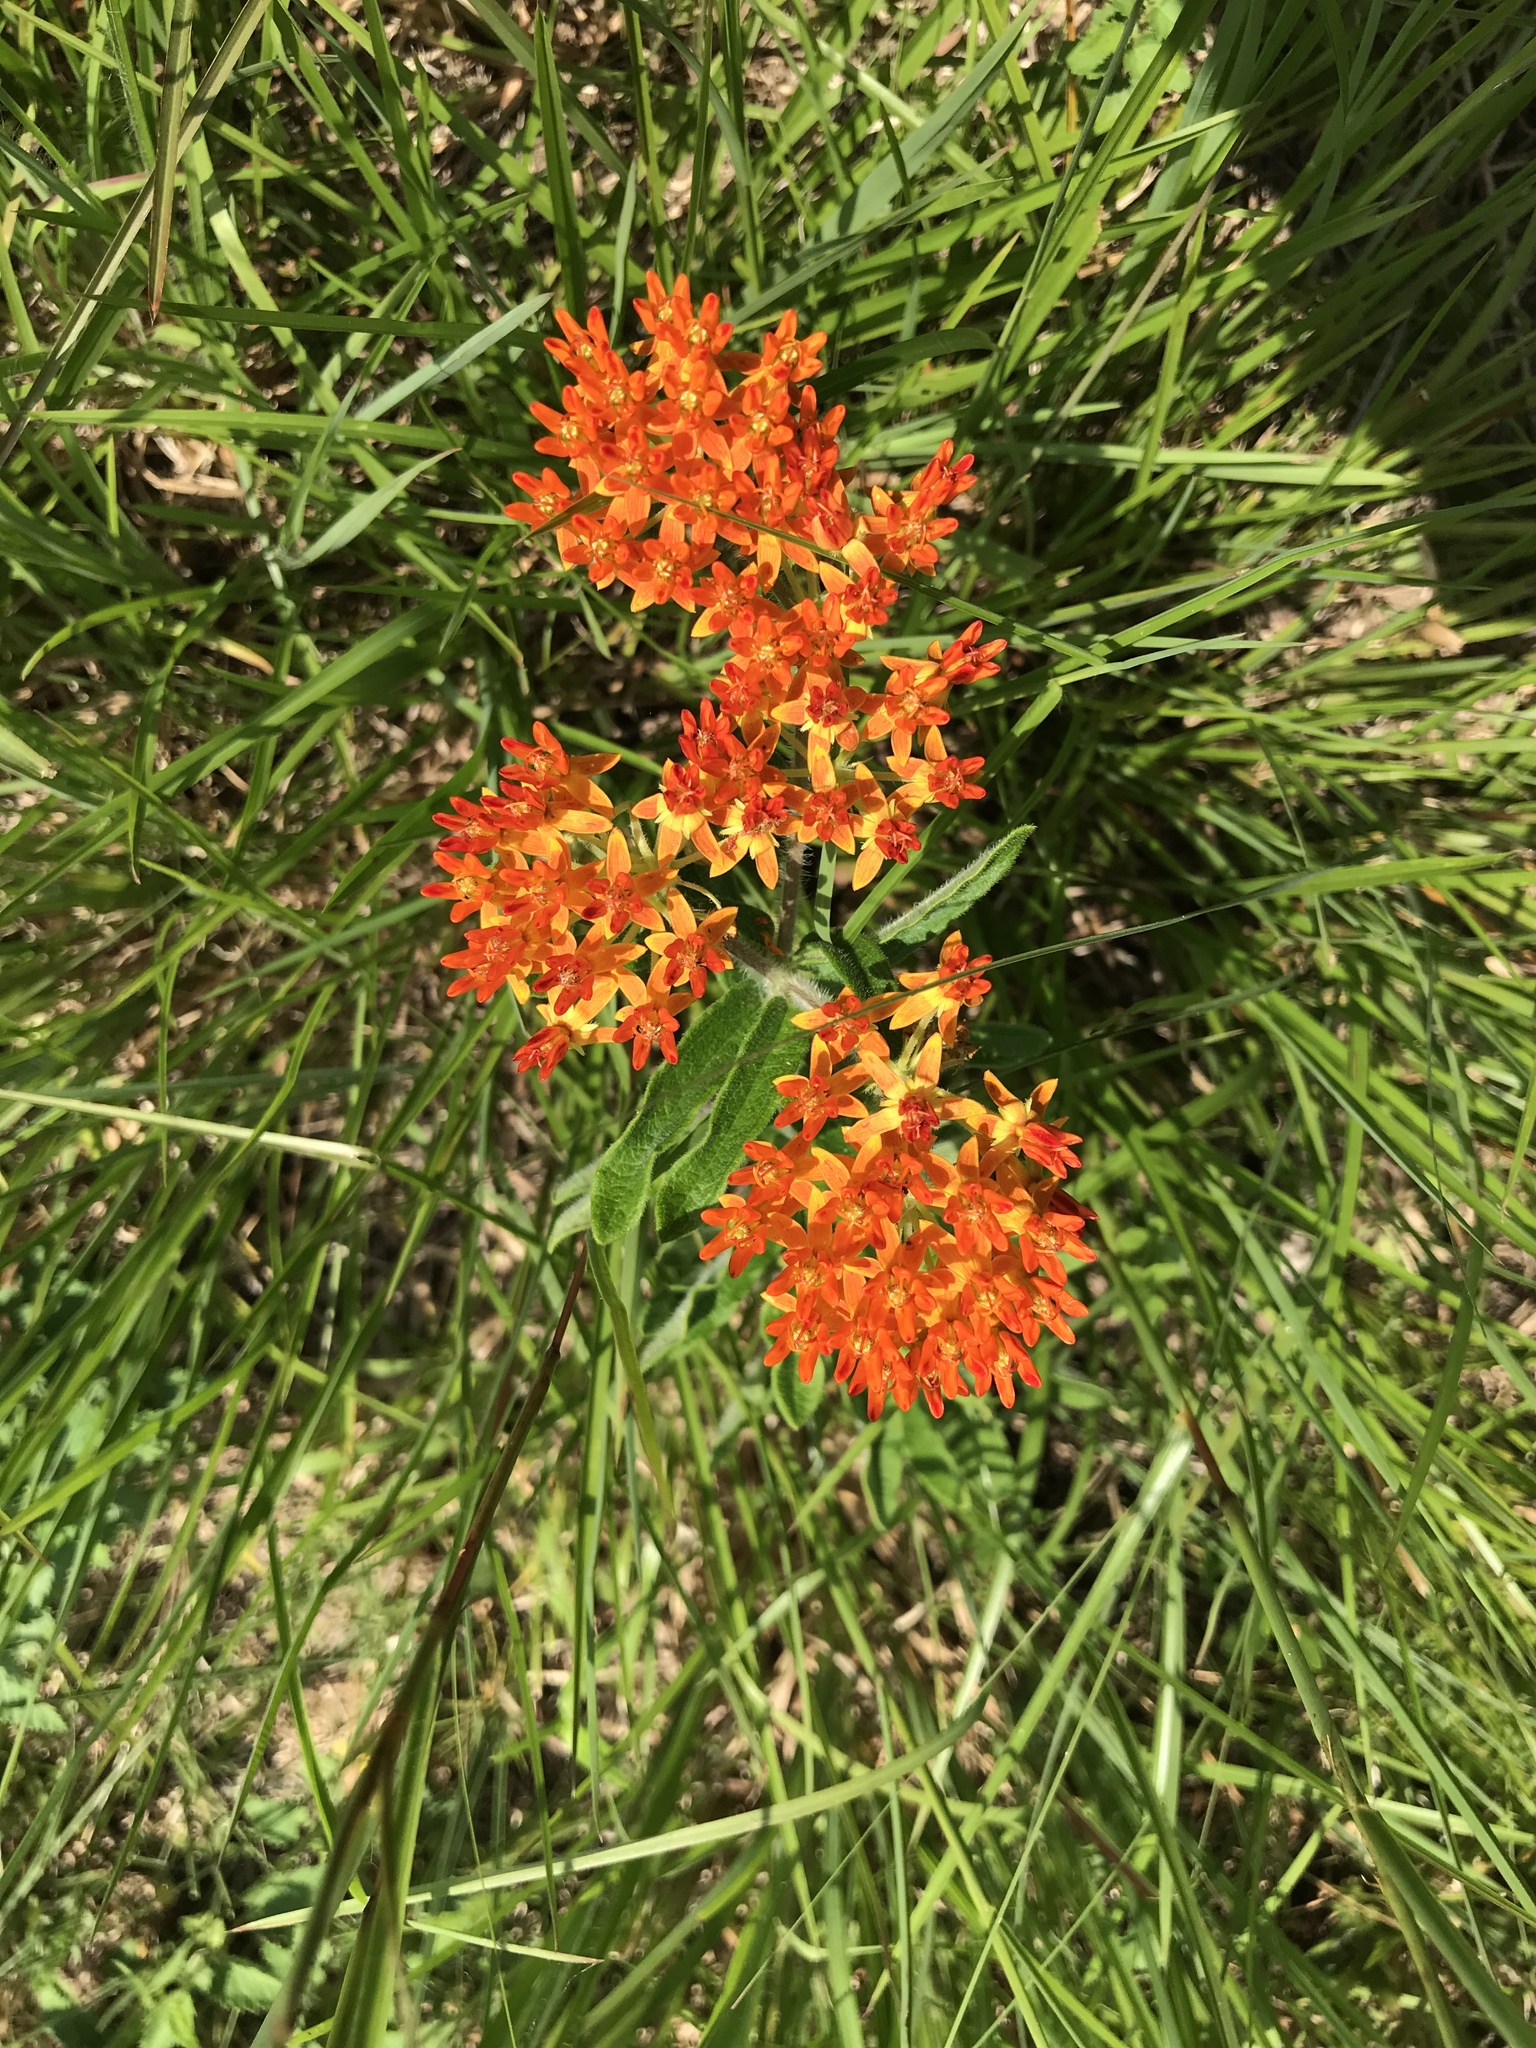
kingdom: Plantae
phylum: Tracheophyta
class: Magnoliopsida
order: Gentianales
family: Apocynaceae
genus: Asclepias
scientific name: Asclepias tuberosa
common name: Butterfly milkweed
